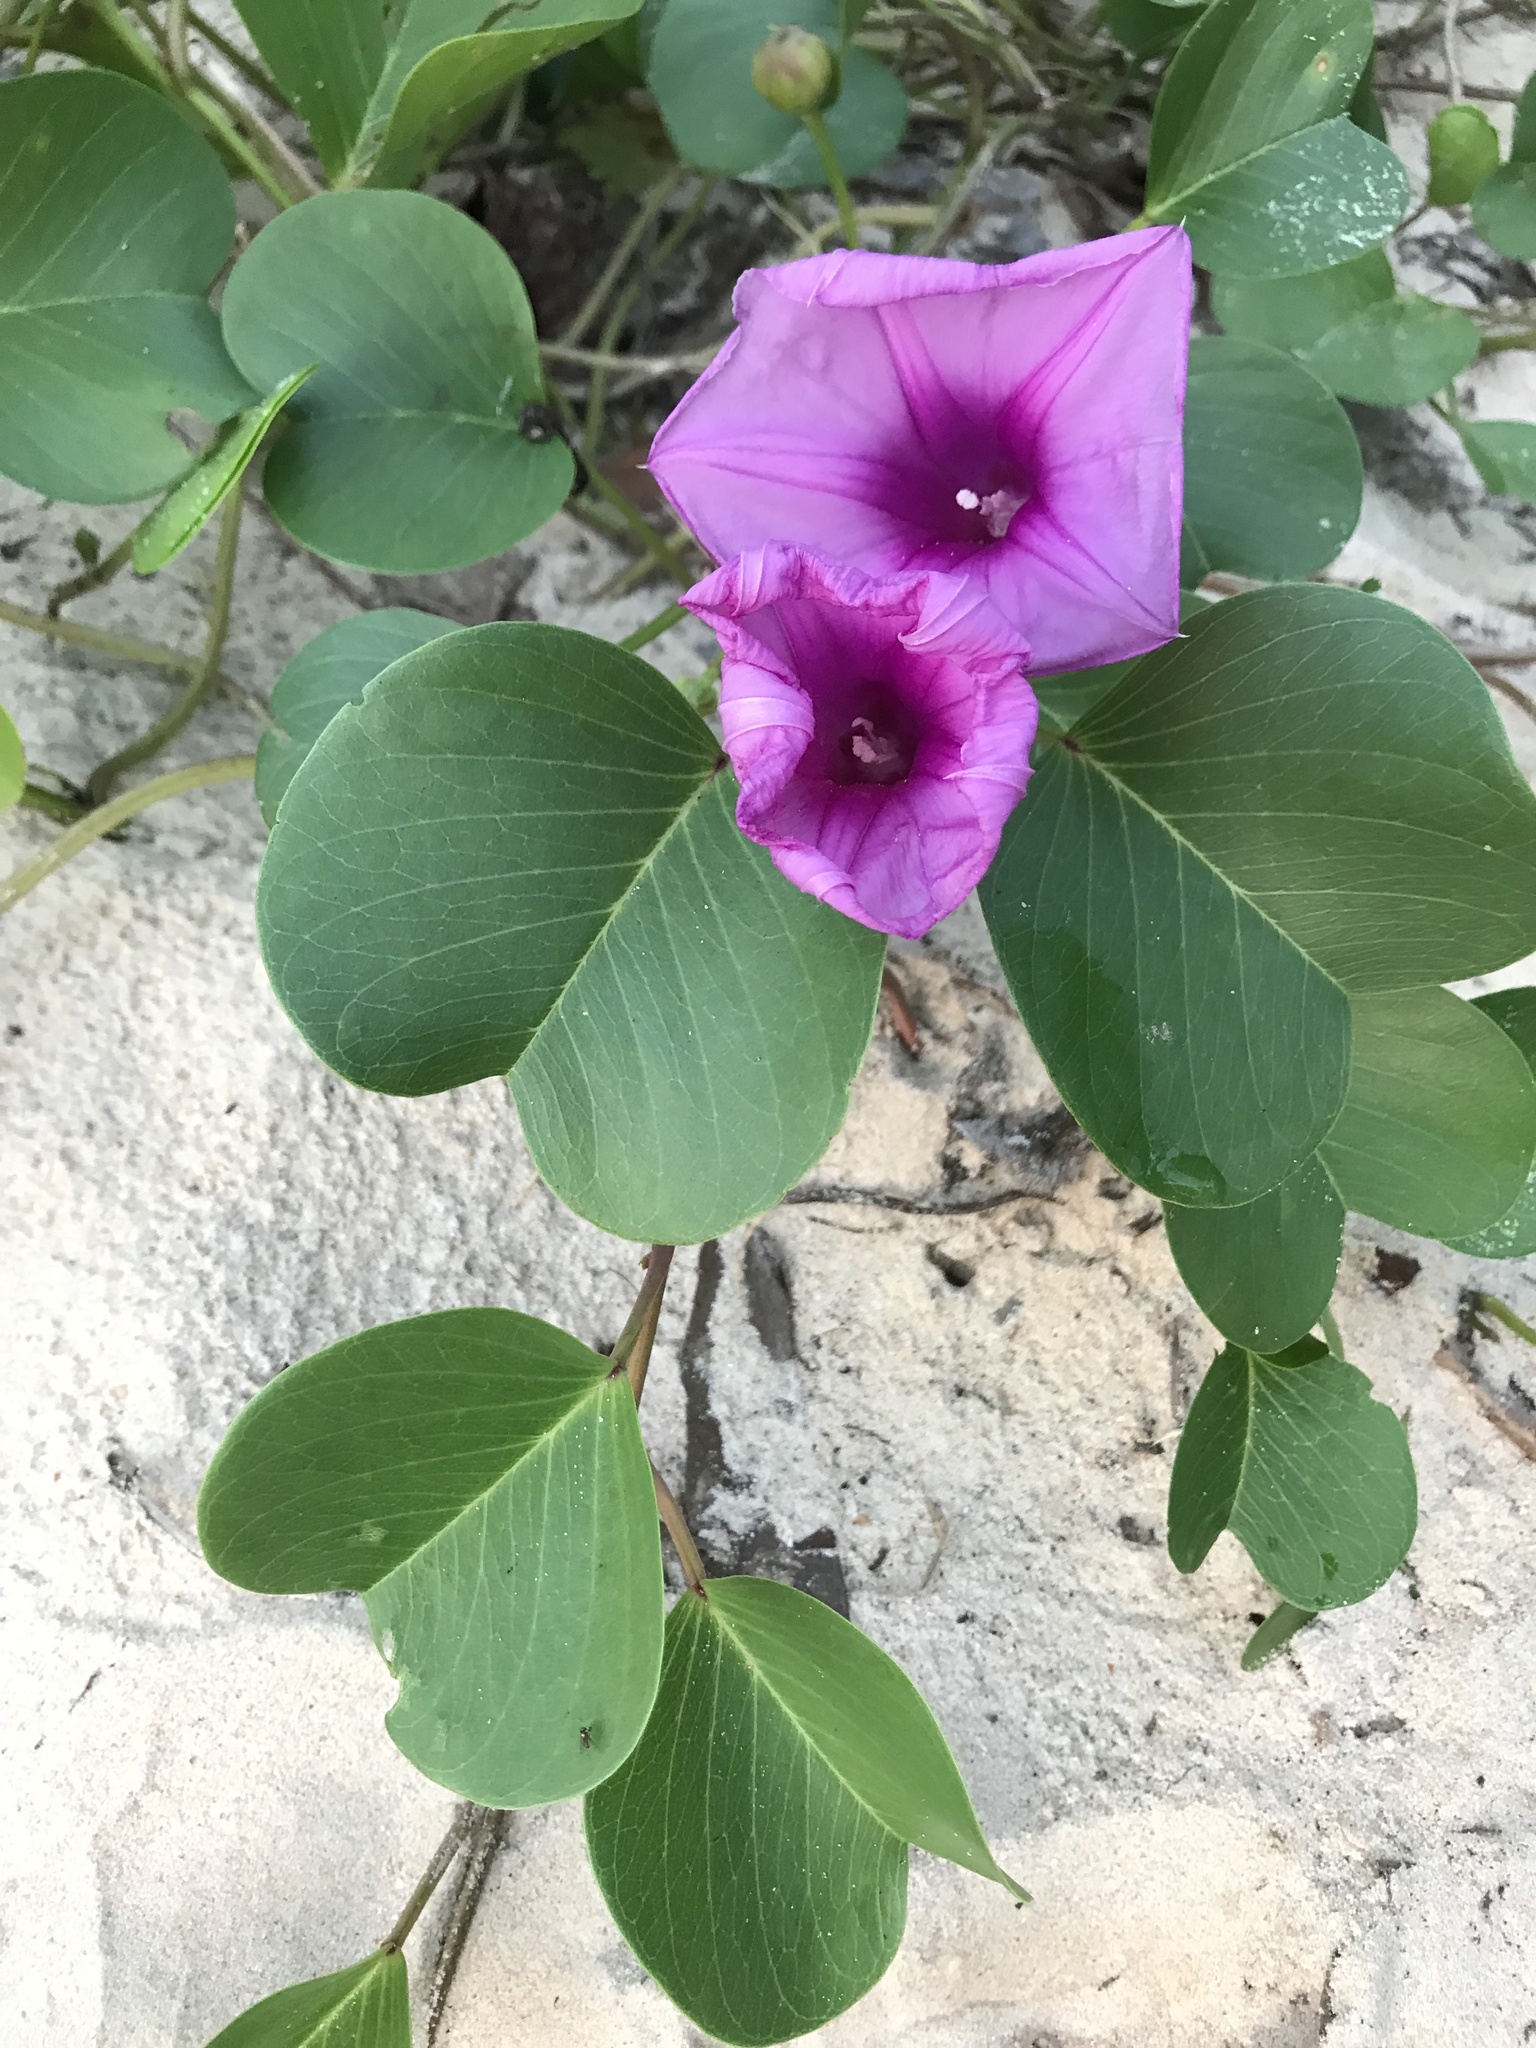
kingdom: Plantae
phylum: Tracheophyta
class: Magnoliopsida
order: Solanales
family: Convolvulaceae
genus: Ipomoea
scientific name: Ipomoea pes-caprae
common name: Beach morning glory
